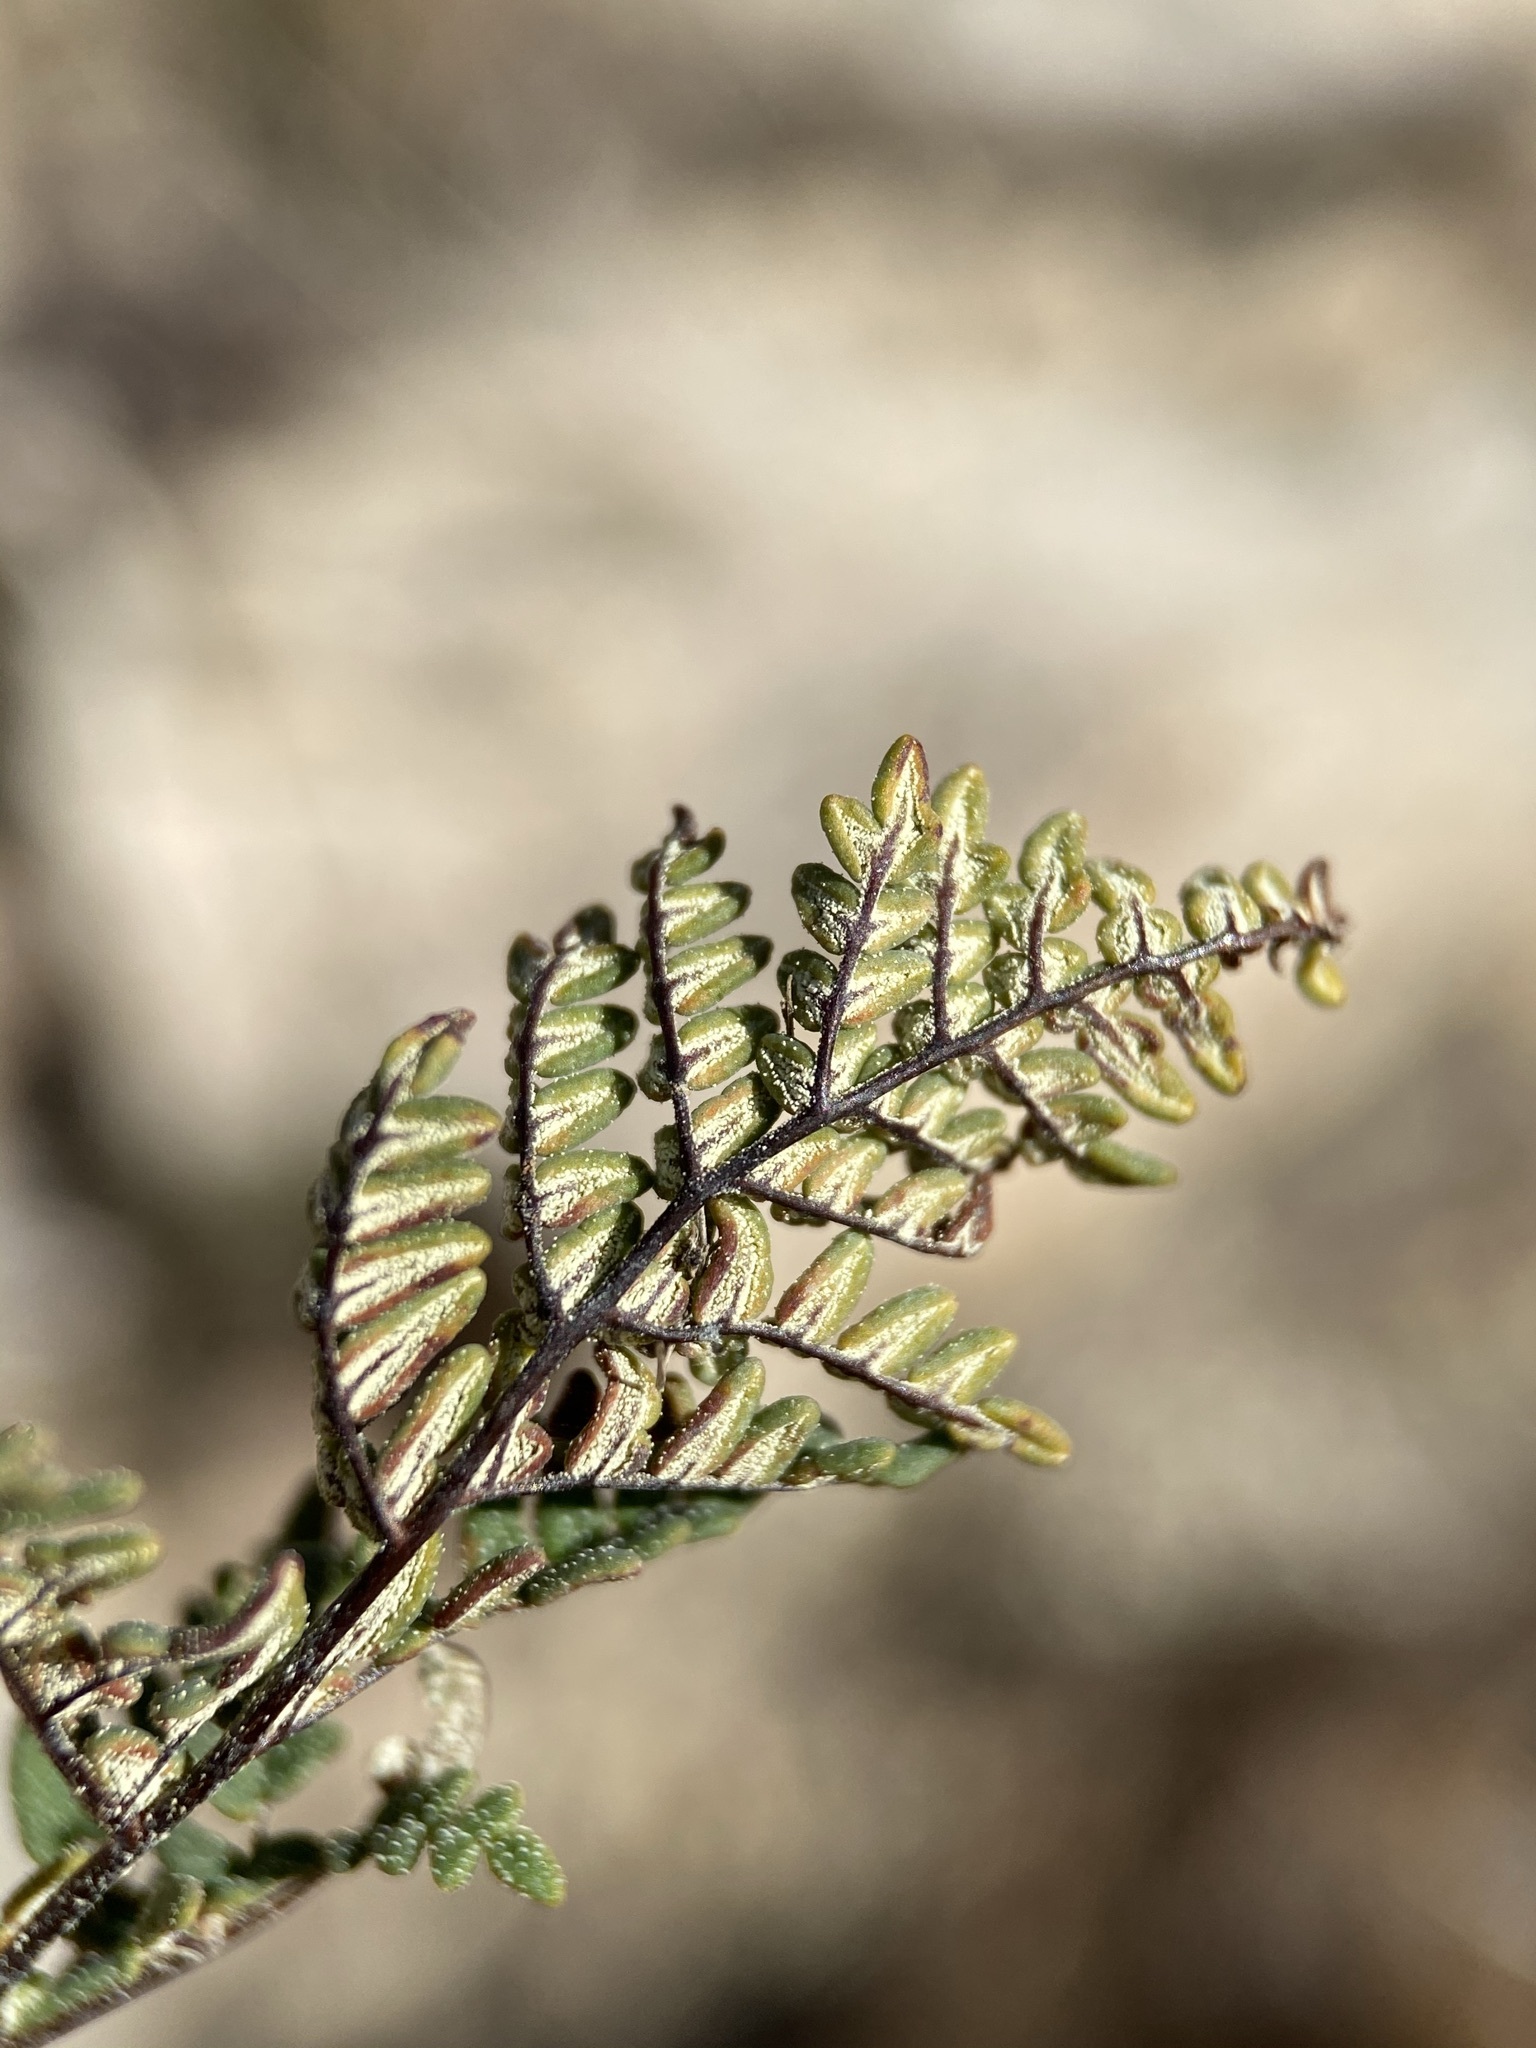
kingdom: Plantae
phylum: Tracheophyta
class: Polypodiopsida
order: Polypodiales
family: Pteridaceae
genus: Notholaena
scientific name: Notholaena neglecta
